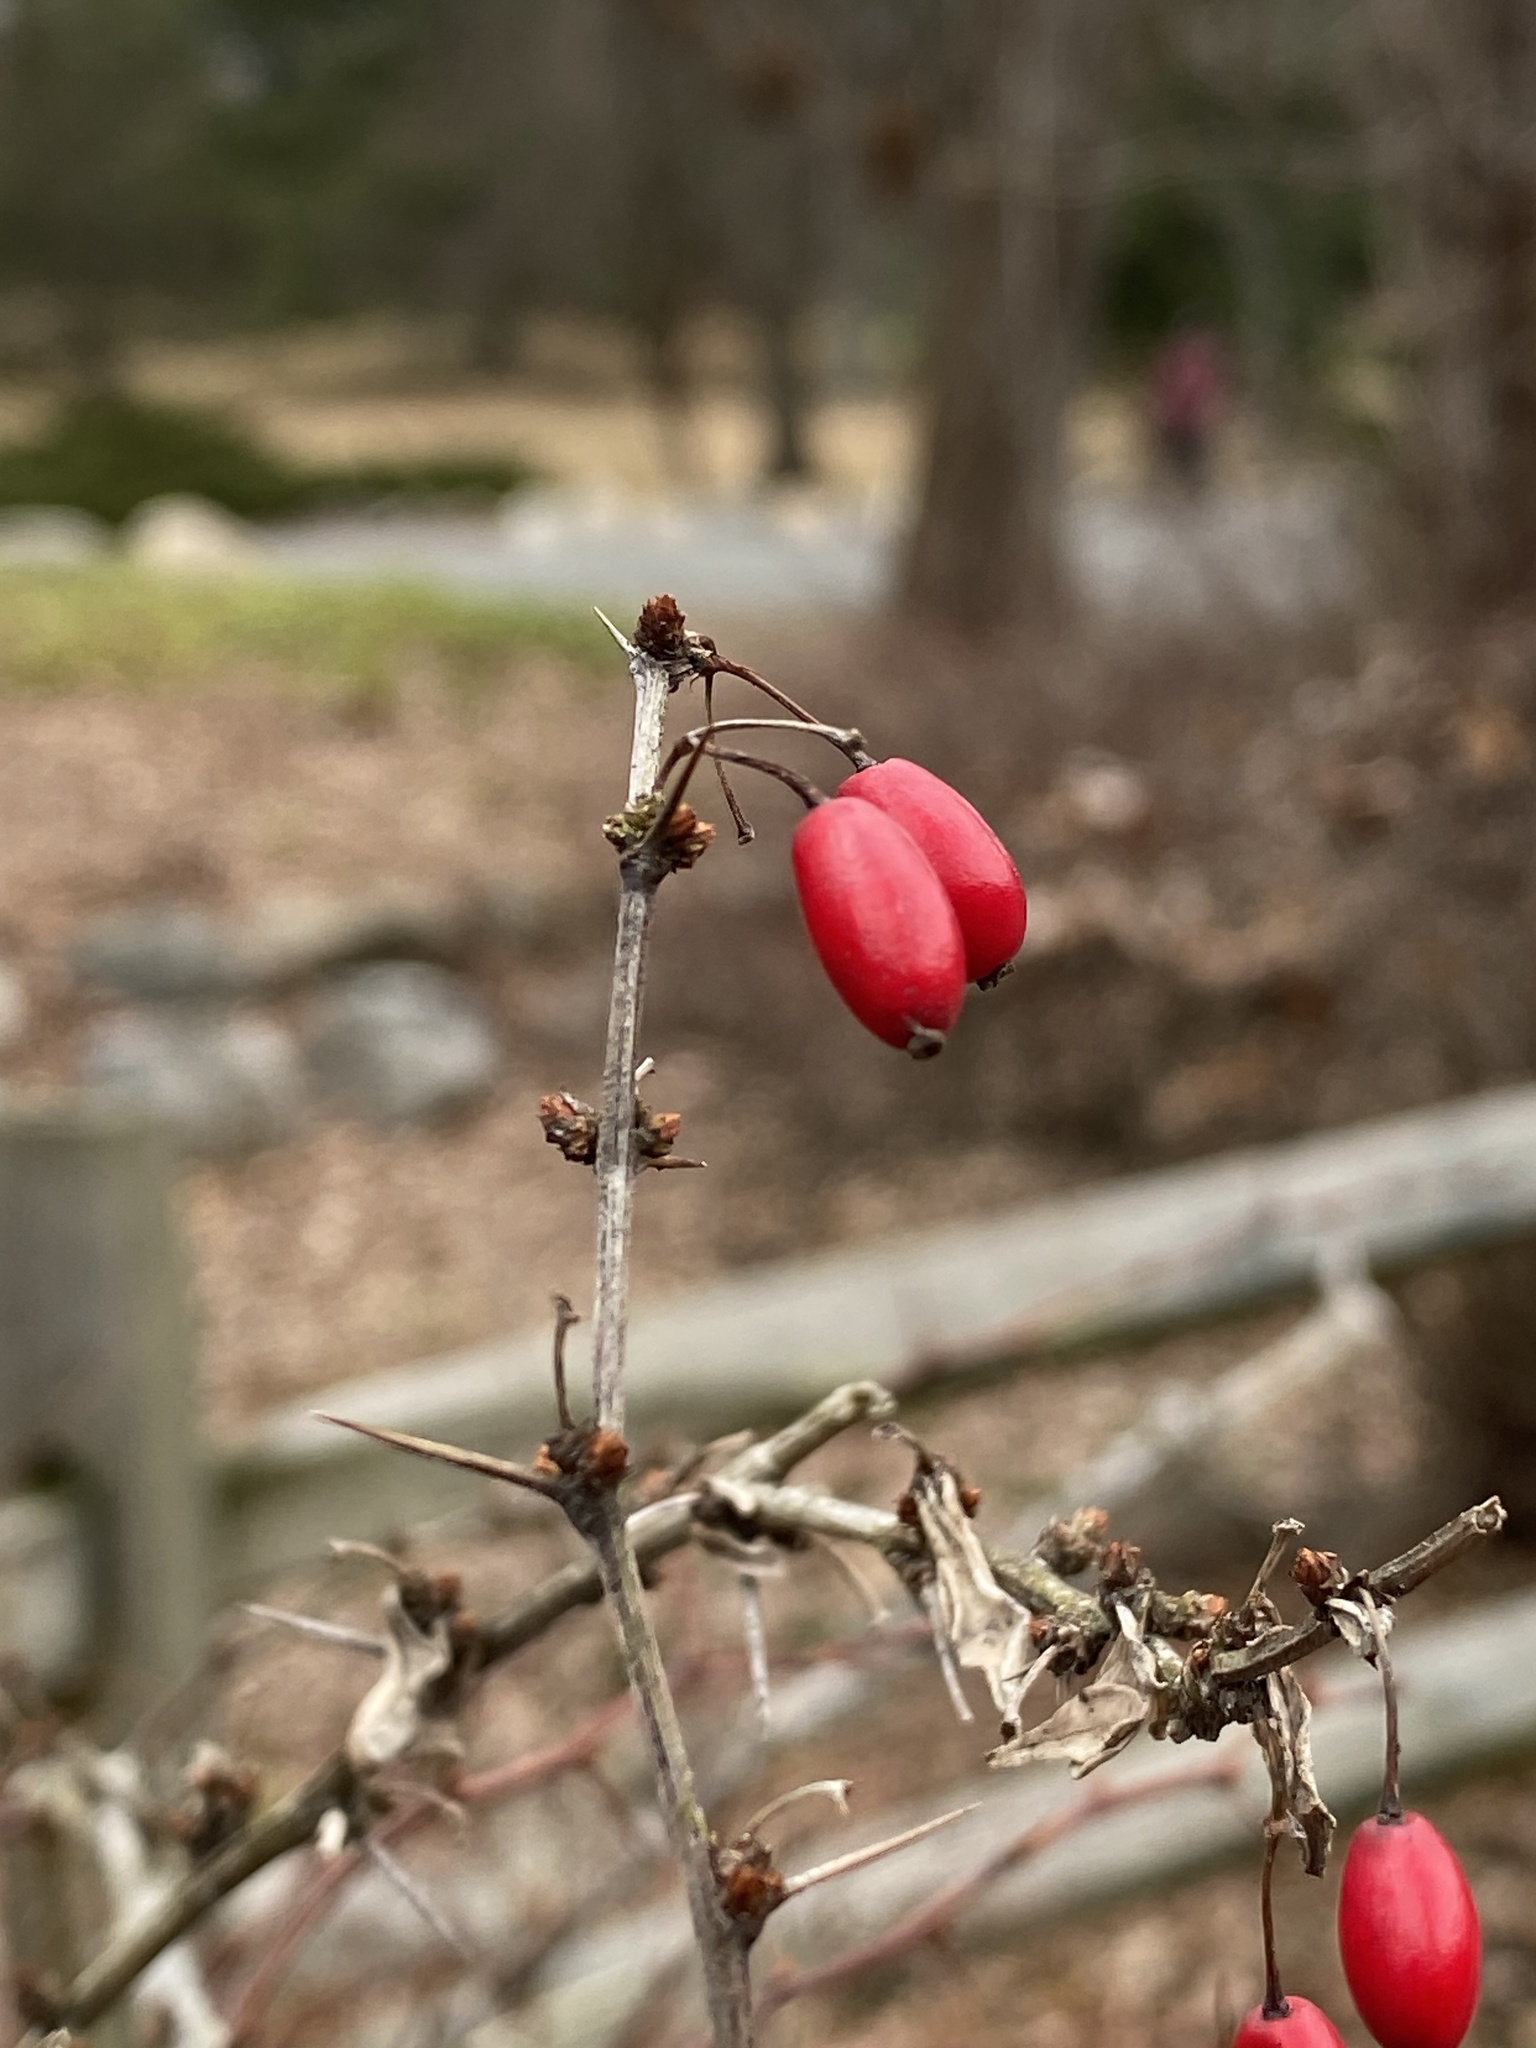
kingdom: Plantae
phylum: Tracheophyta
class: Magnoliopsida
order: Ranunculales
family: Berberidaceae
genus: Berberis
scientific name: Berberis thunbergii
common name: Japanese barberry
